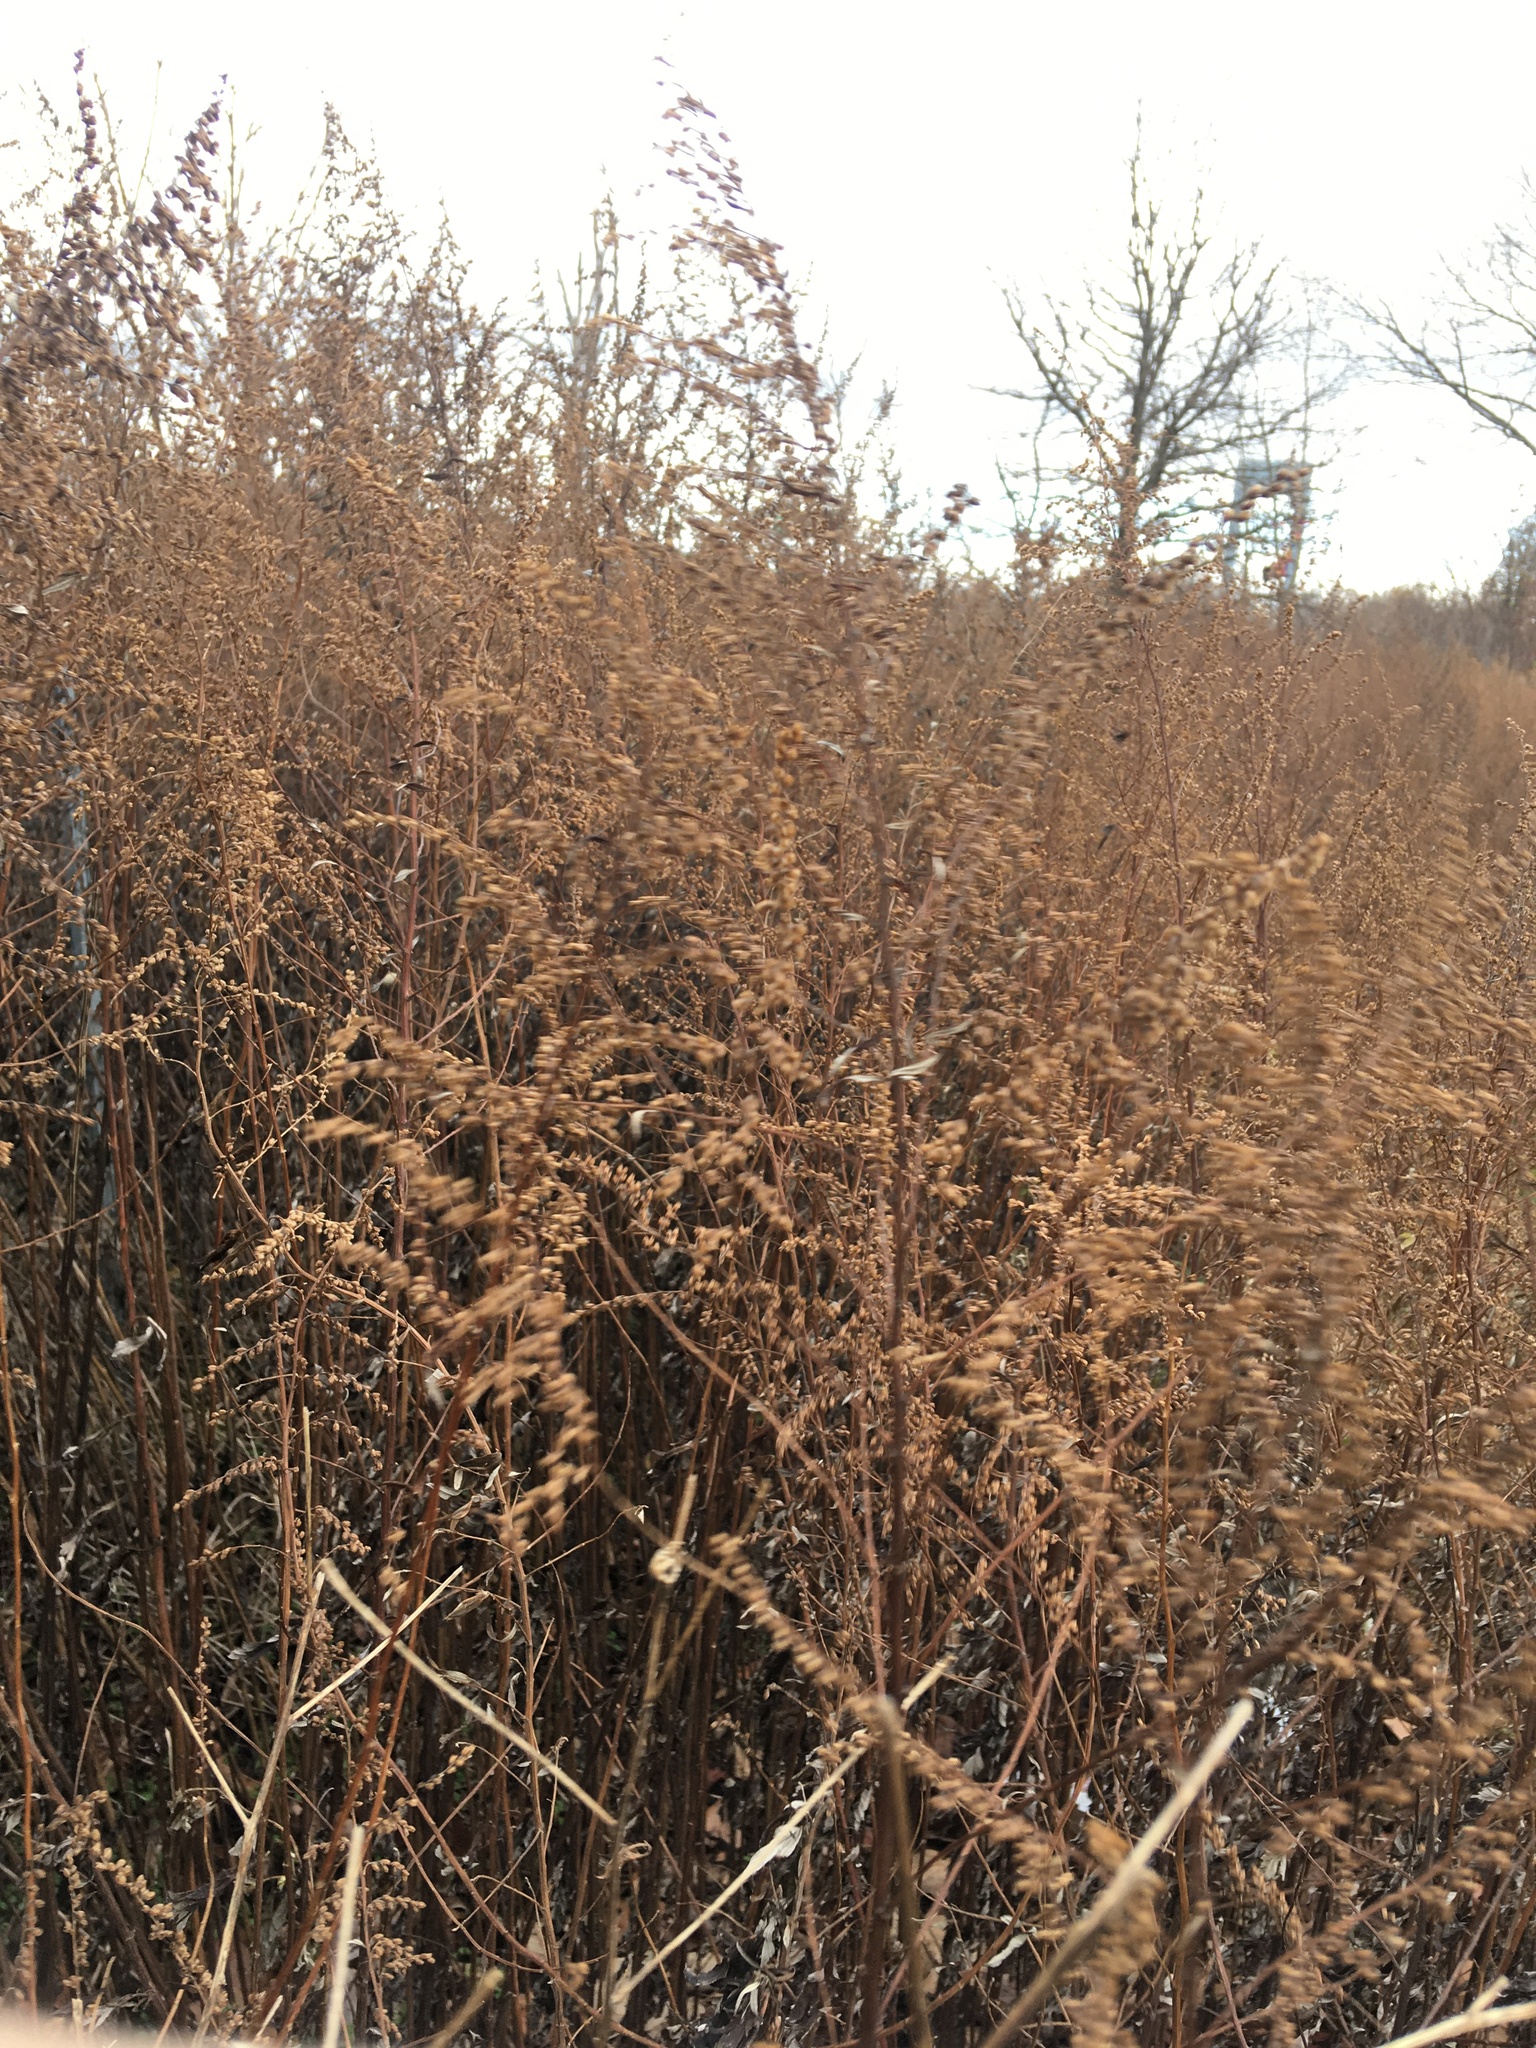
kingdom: Plantae
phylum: Tracheophyta
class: Magnoliopsida
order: Asterales
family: Asteraceae
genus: Artemisia
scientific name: Artemisia vulgaris
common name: Mugwort
